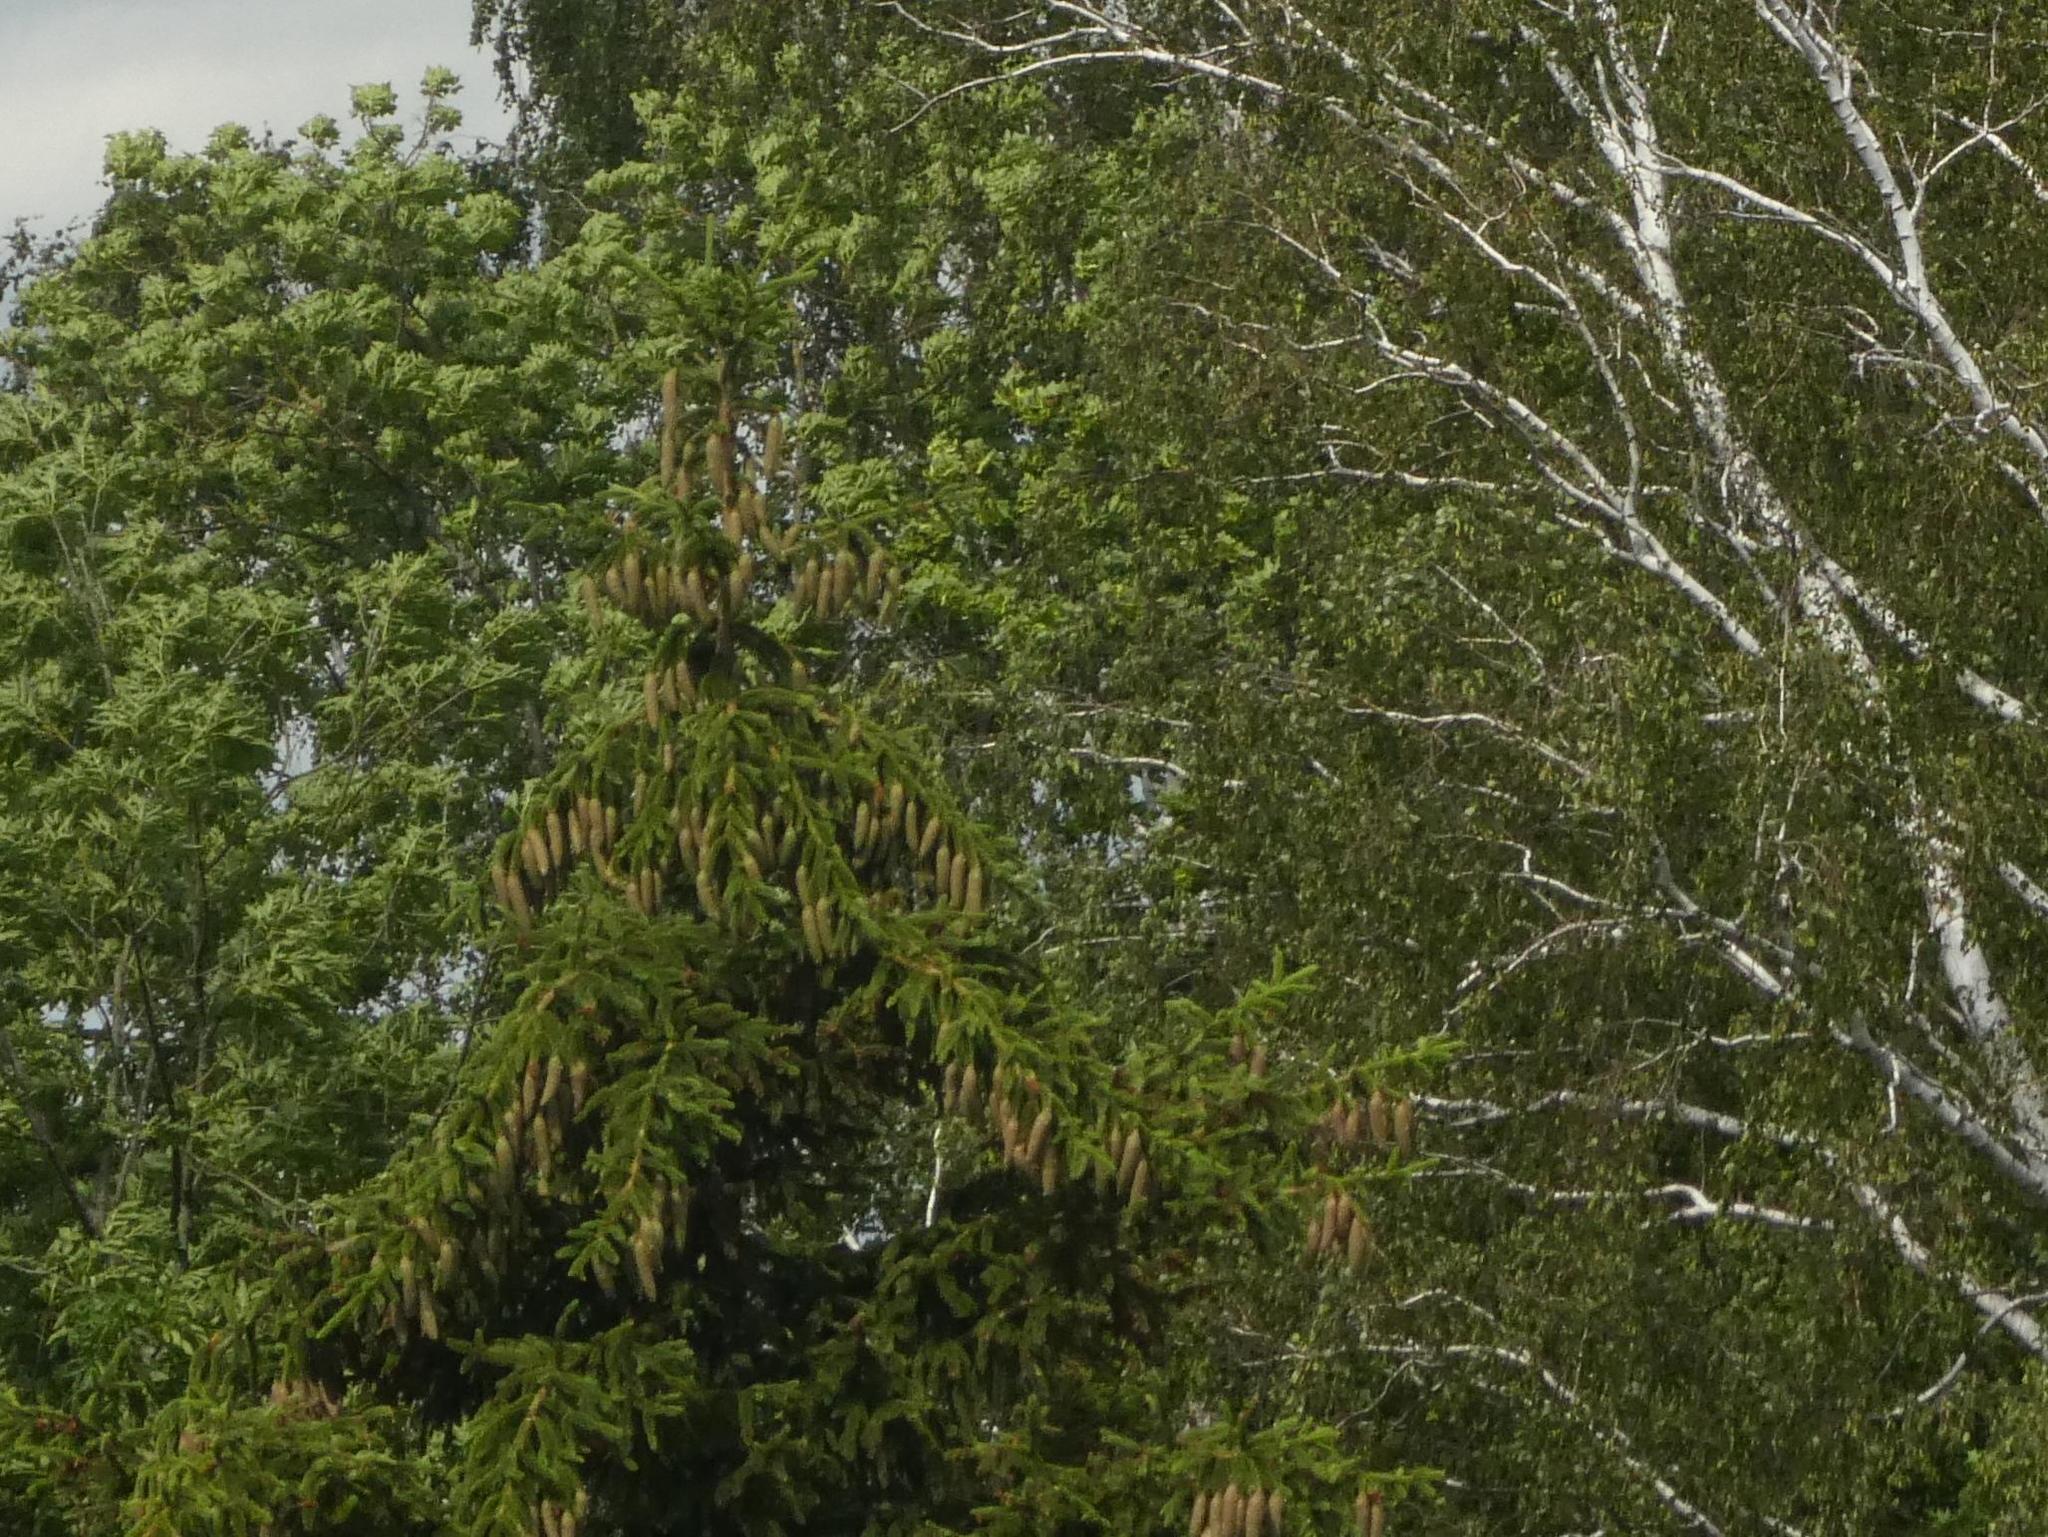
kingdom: Plantae
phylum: Tracheophyta
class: Pinopsida
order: Pinales
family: Pinaceae
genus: Picea
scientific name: Picea abies
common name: Norway spruce
